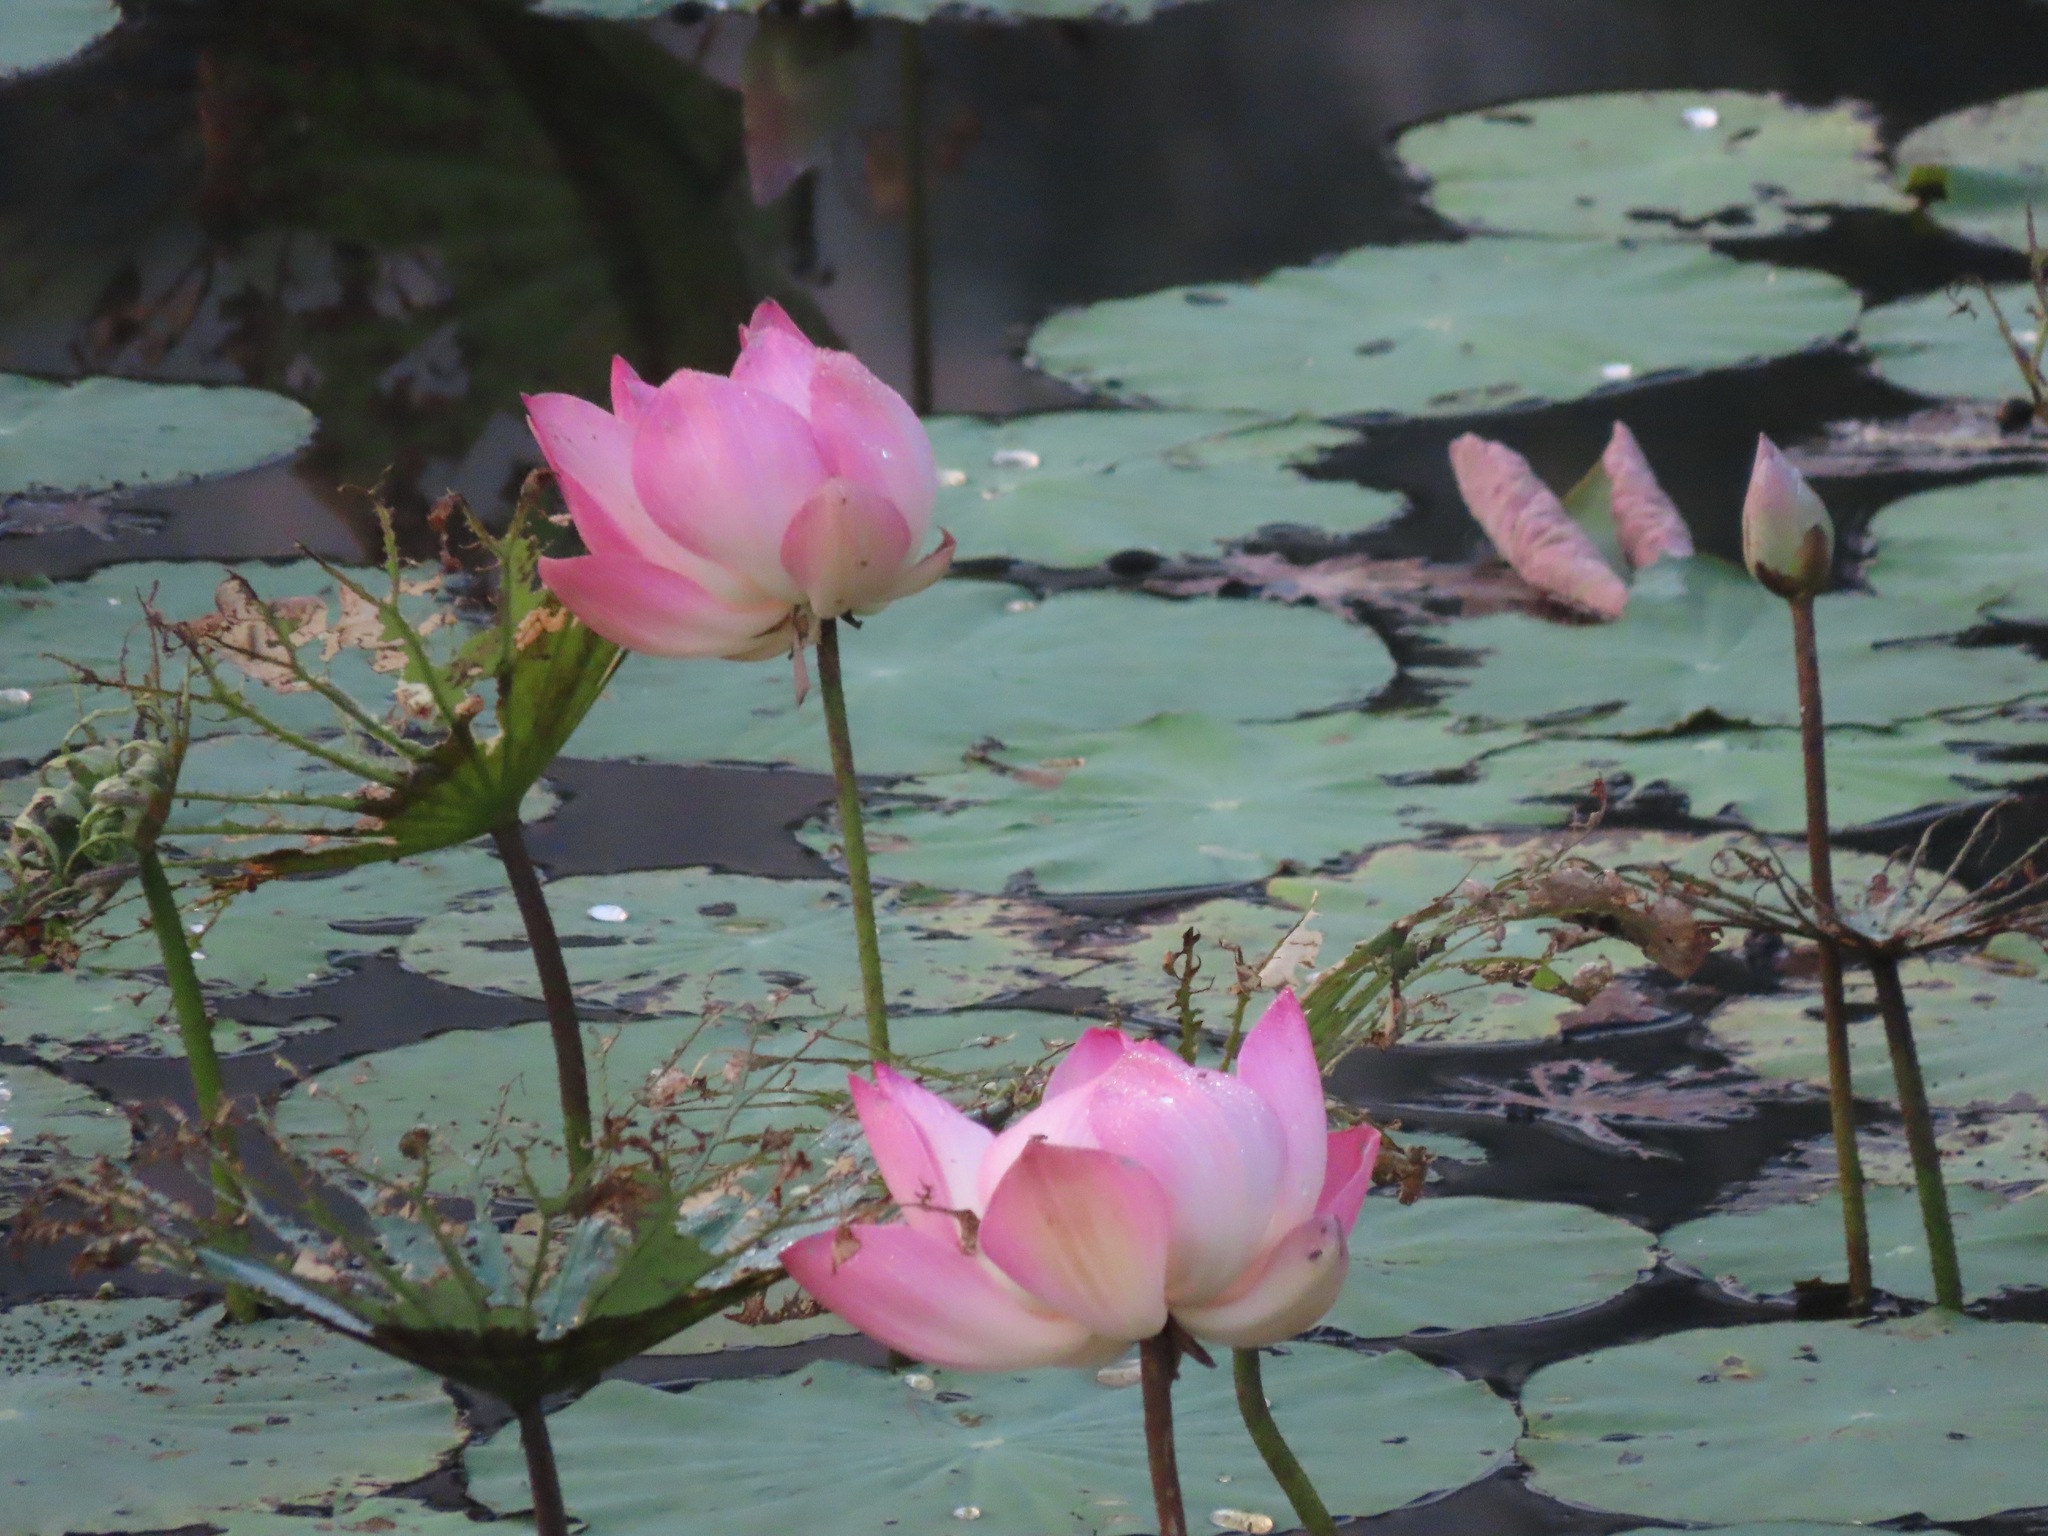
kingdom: Plantae
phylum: Tracheophyta
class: Magnoliopsida
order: Proteales
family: Nelumbonaceae
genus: Nelumbo
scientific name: Nelumbo nucifera
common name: Sacred lotus
